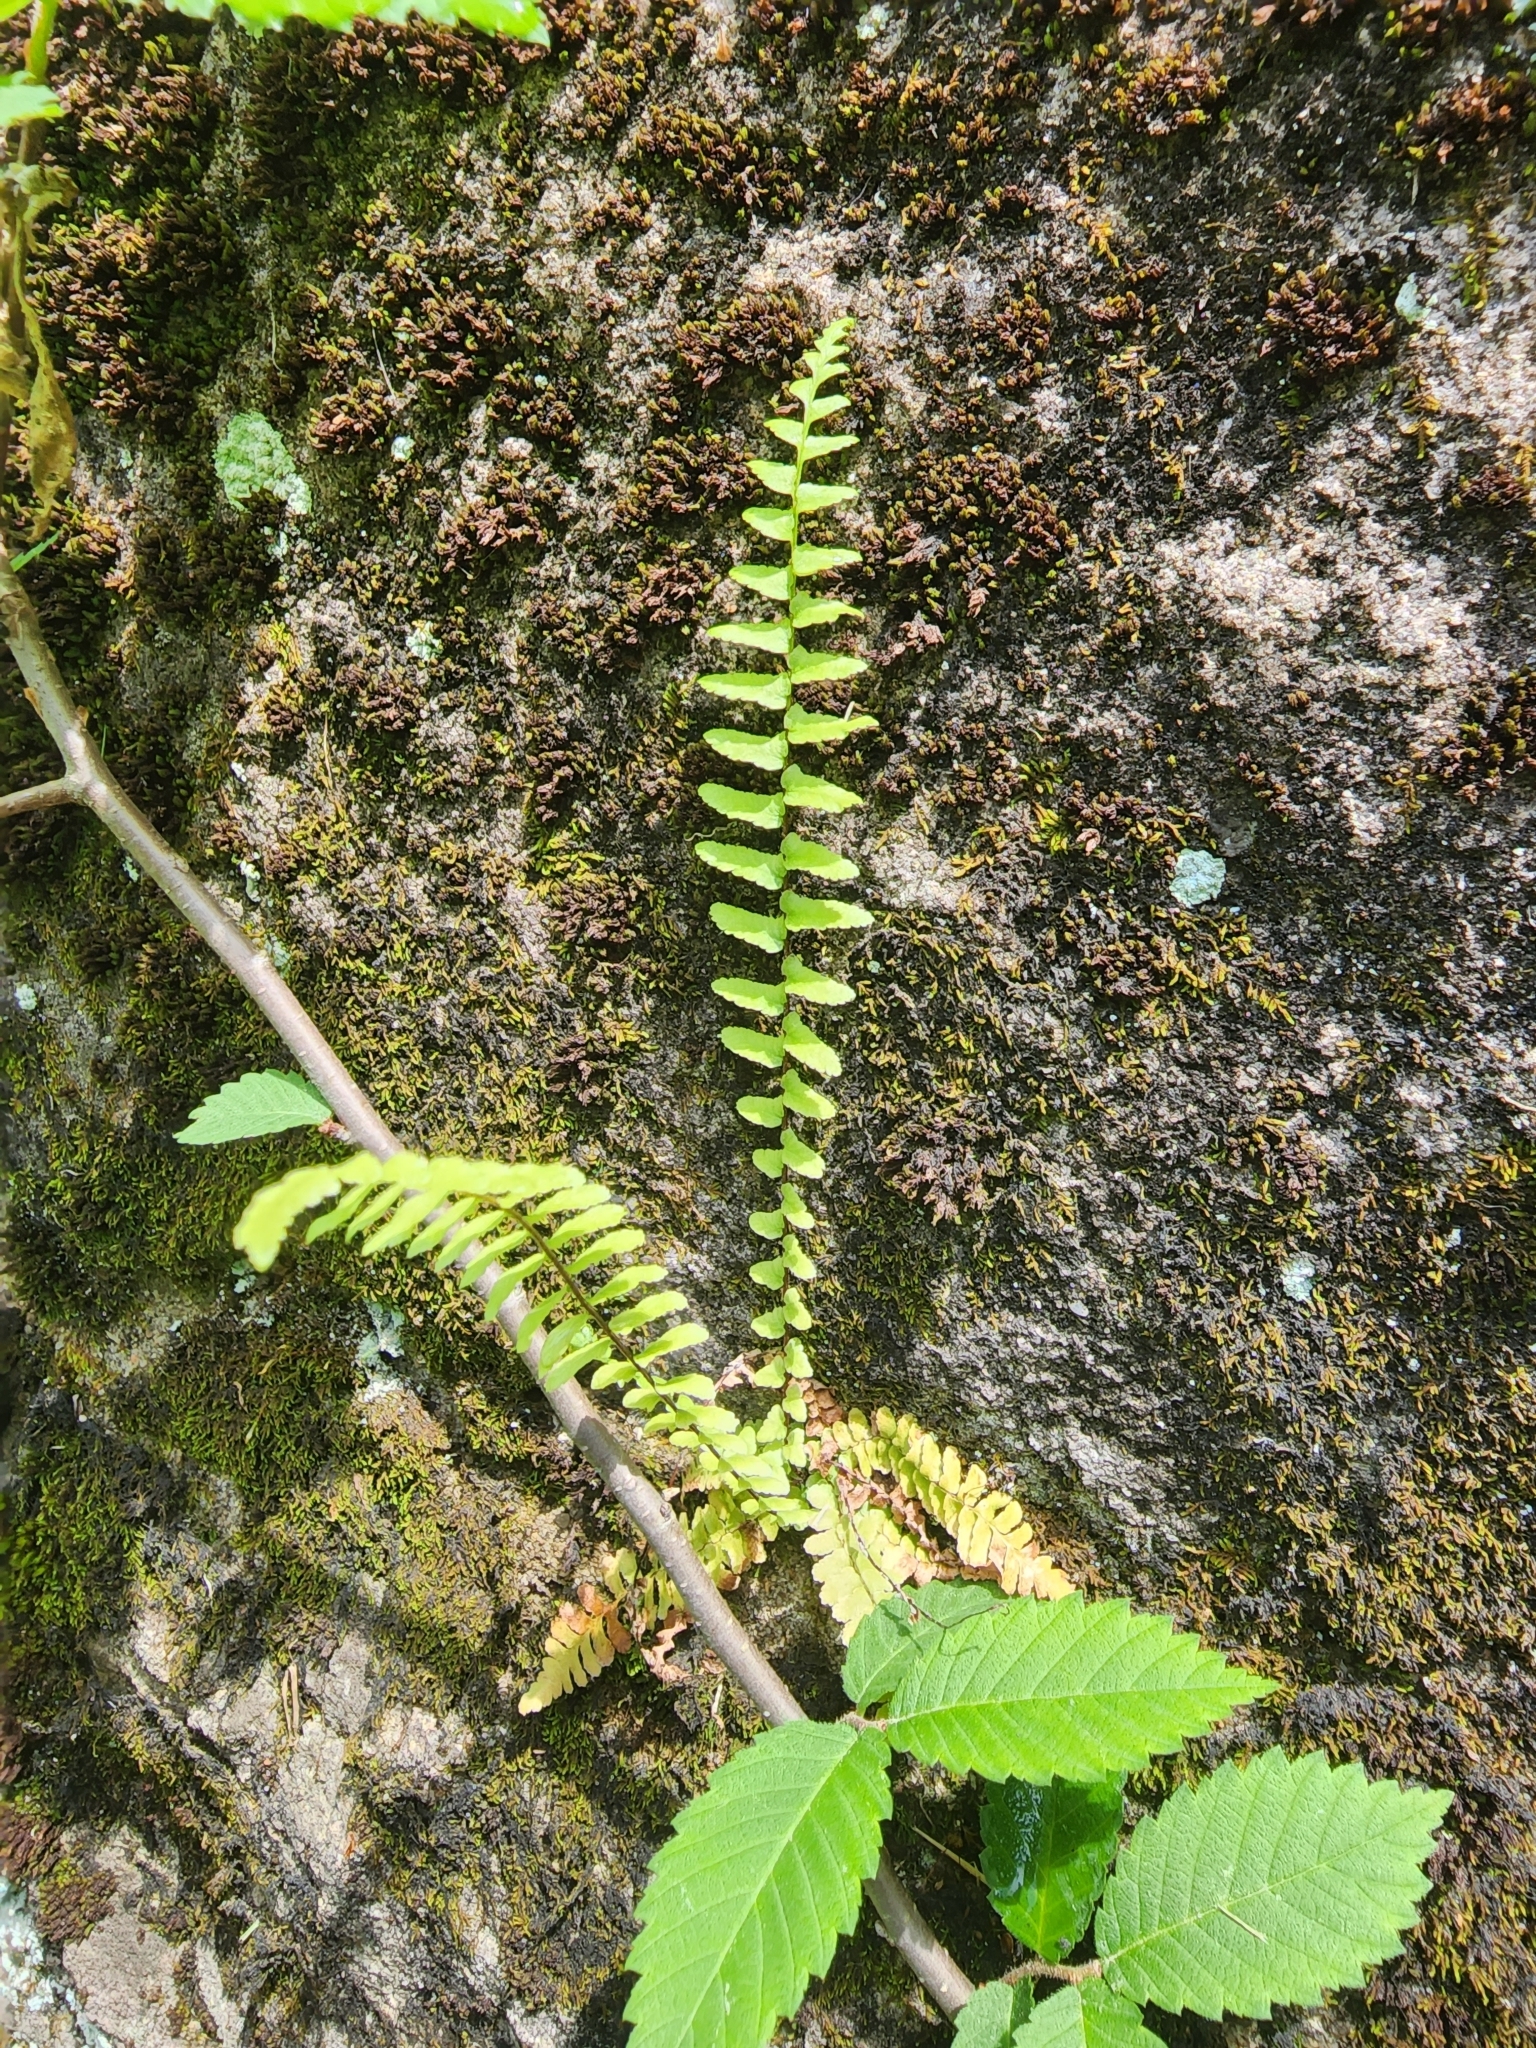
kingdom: Plantae
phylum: Tracheophyta
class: Polypodiopsida
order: Polypodiales
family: Aspleniaceae
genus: Asplenium
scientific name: Asplenium platyneuron
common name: Ebony spleenwort
